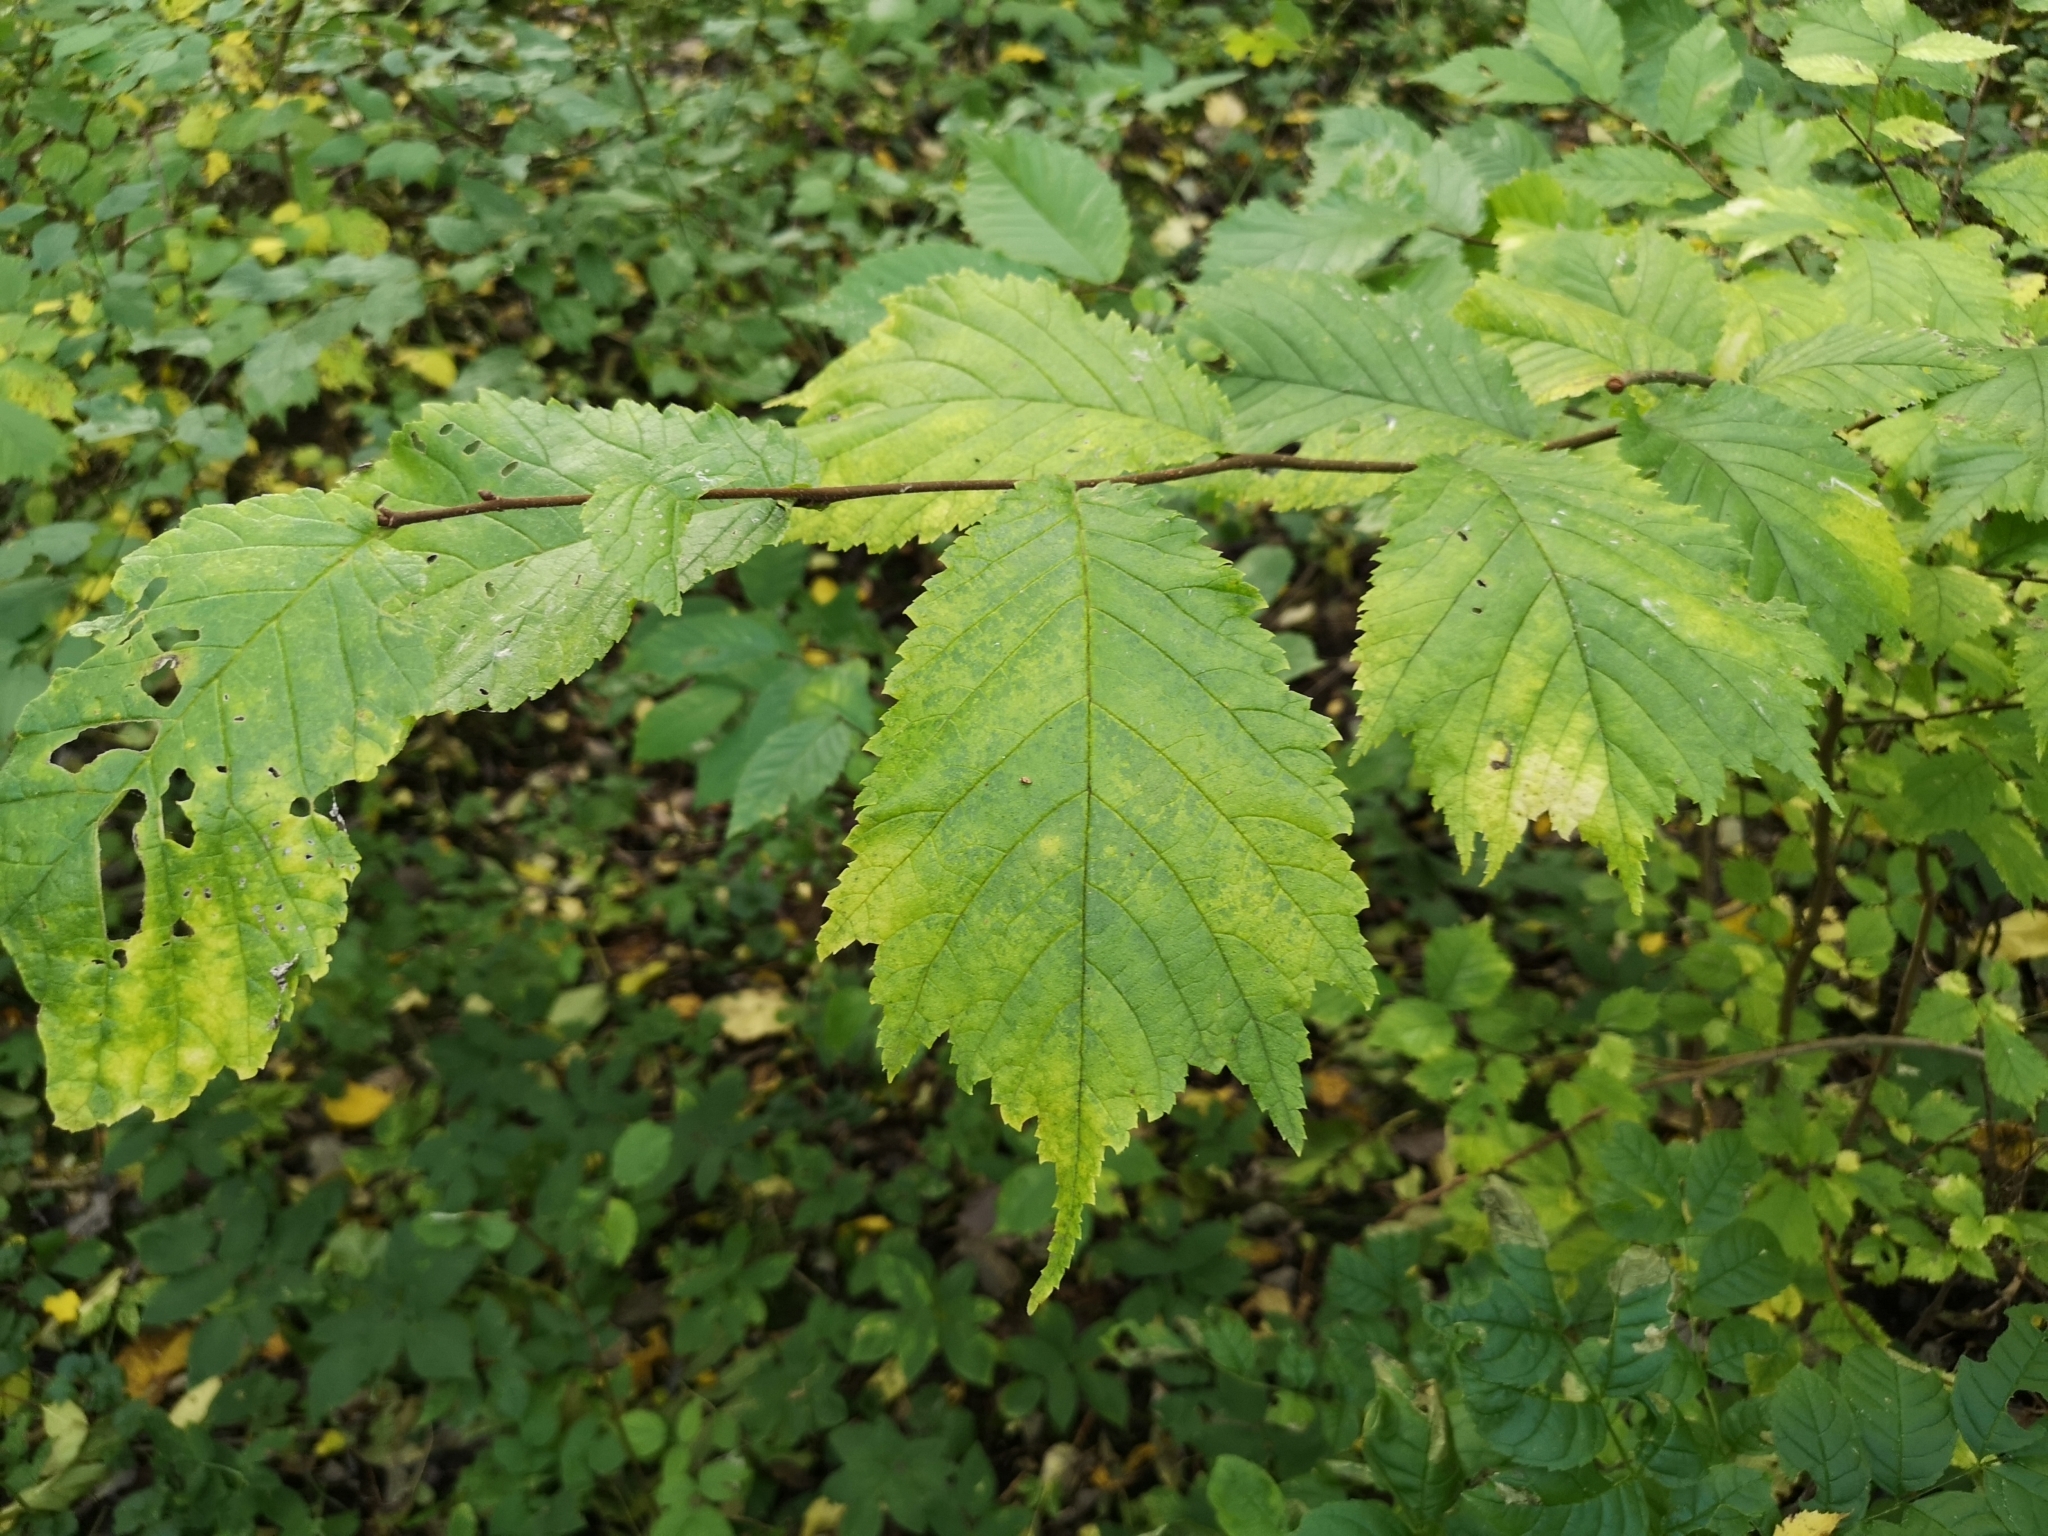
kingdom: Plantae
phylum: Tracheophyta
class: Magnoliopsida
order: Rosales
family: Ulmaceae
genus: Ulmus
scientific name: Ulmus glabra
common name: Wych elm
